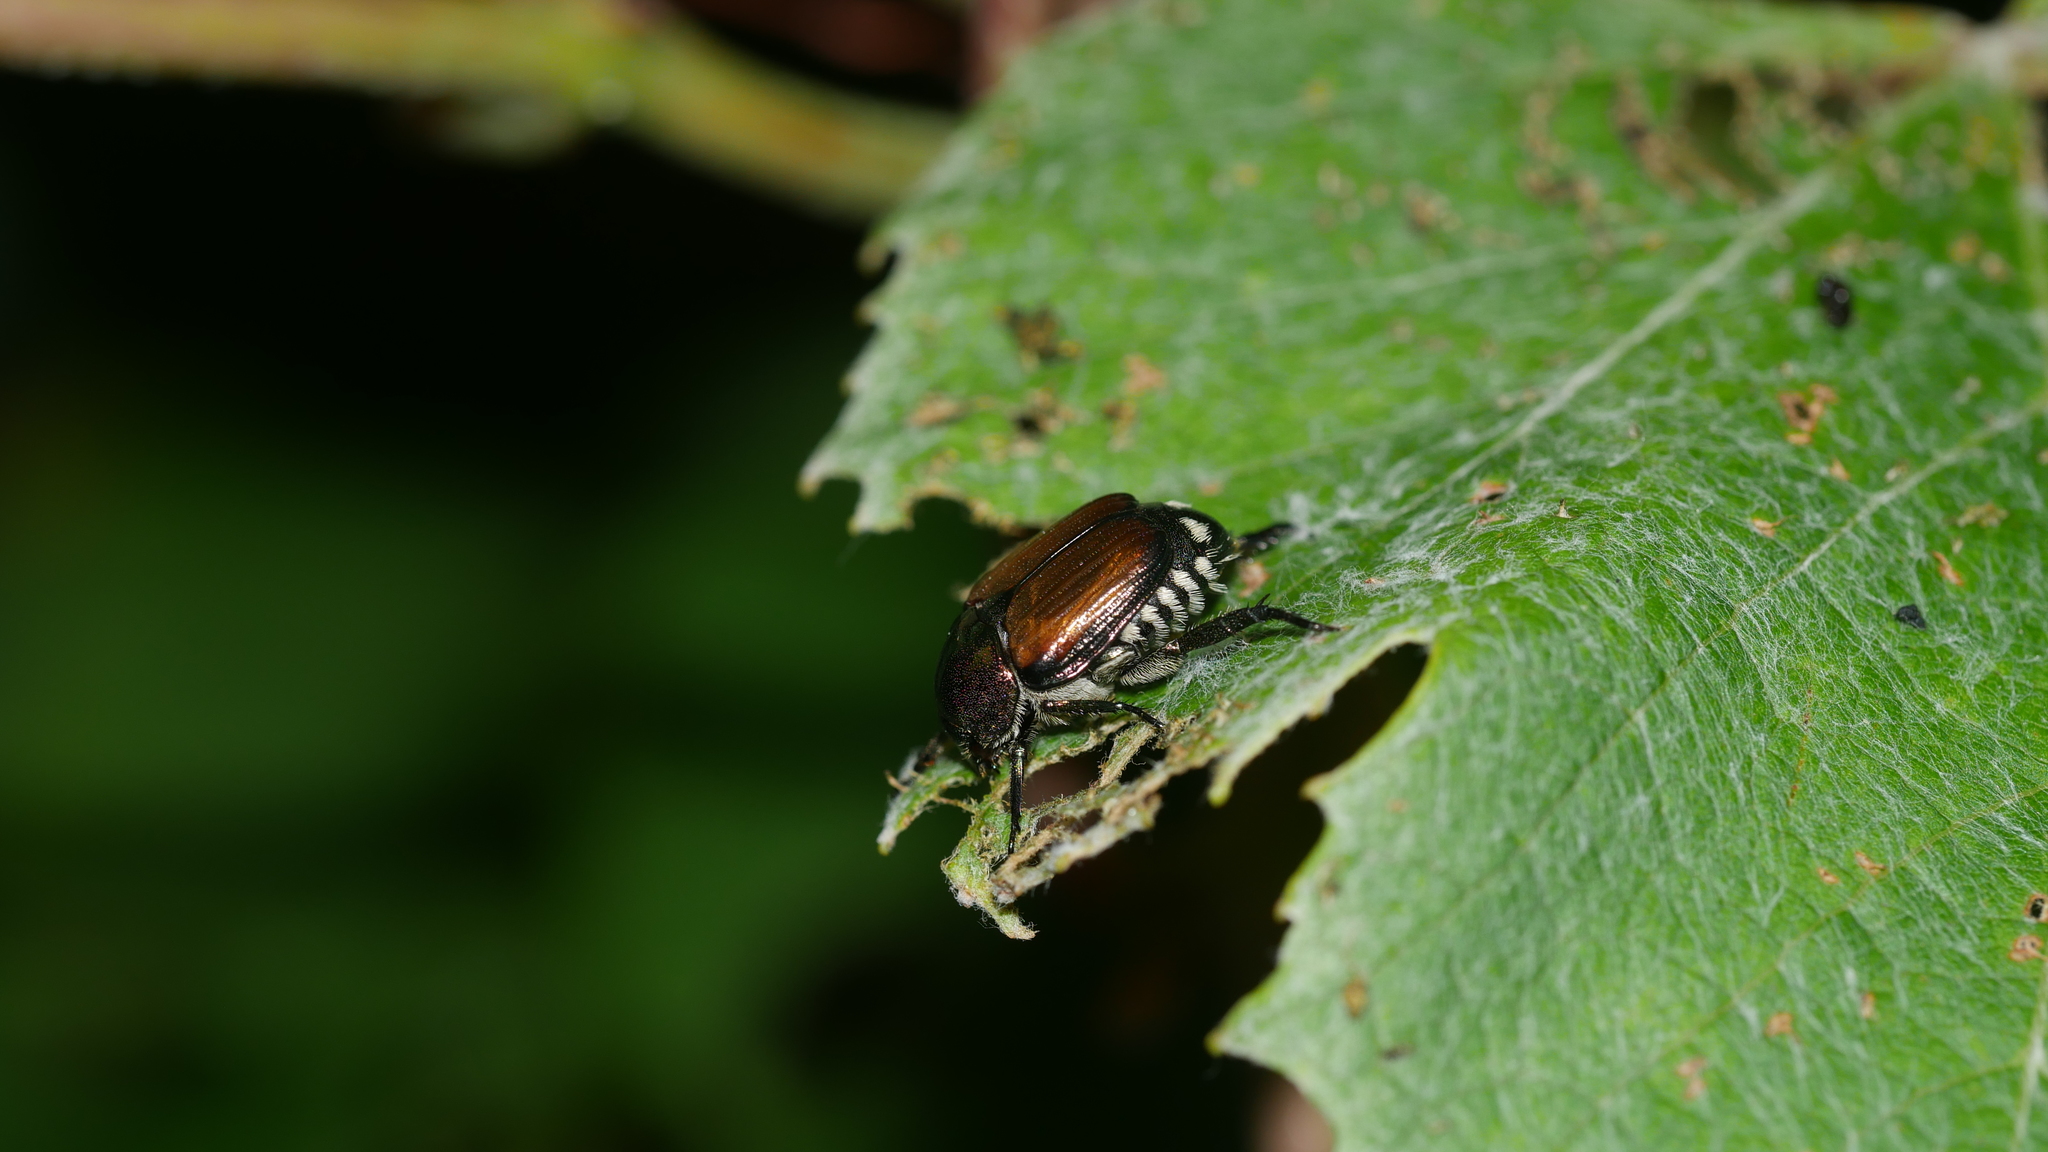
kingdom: Animalia
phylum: Arthropoda
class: Insecta
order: Coleoptera
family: Scarabaeidae
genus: Popillia
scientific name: Popillia japonica
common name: Japanese beetle
